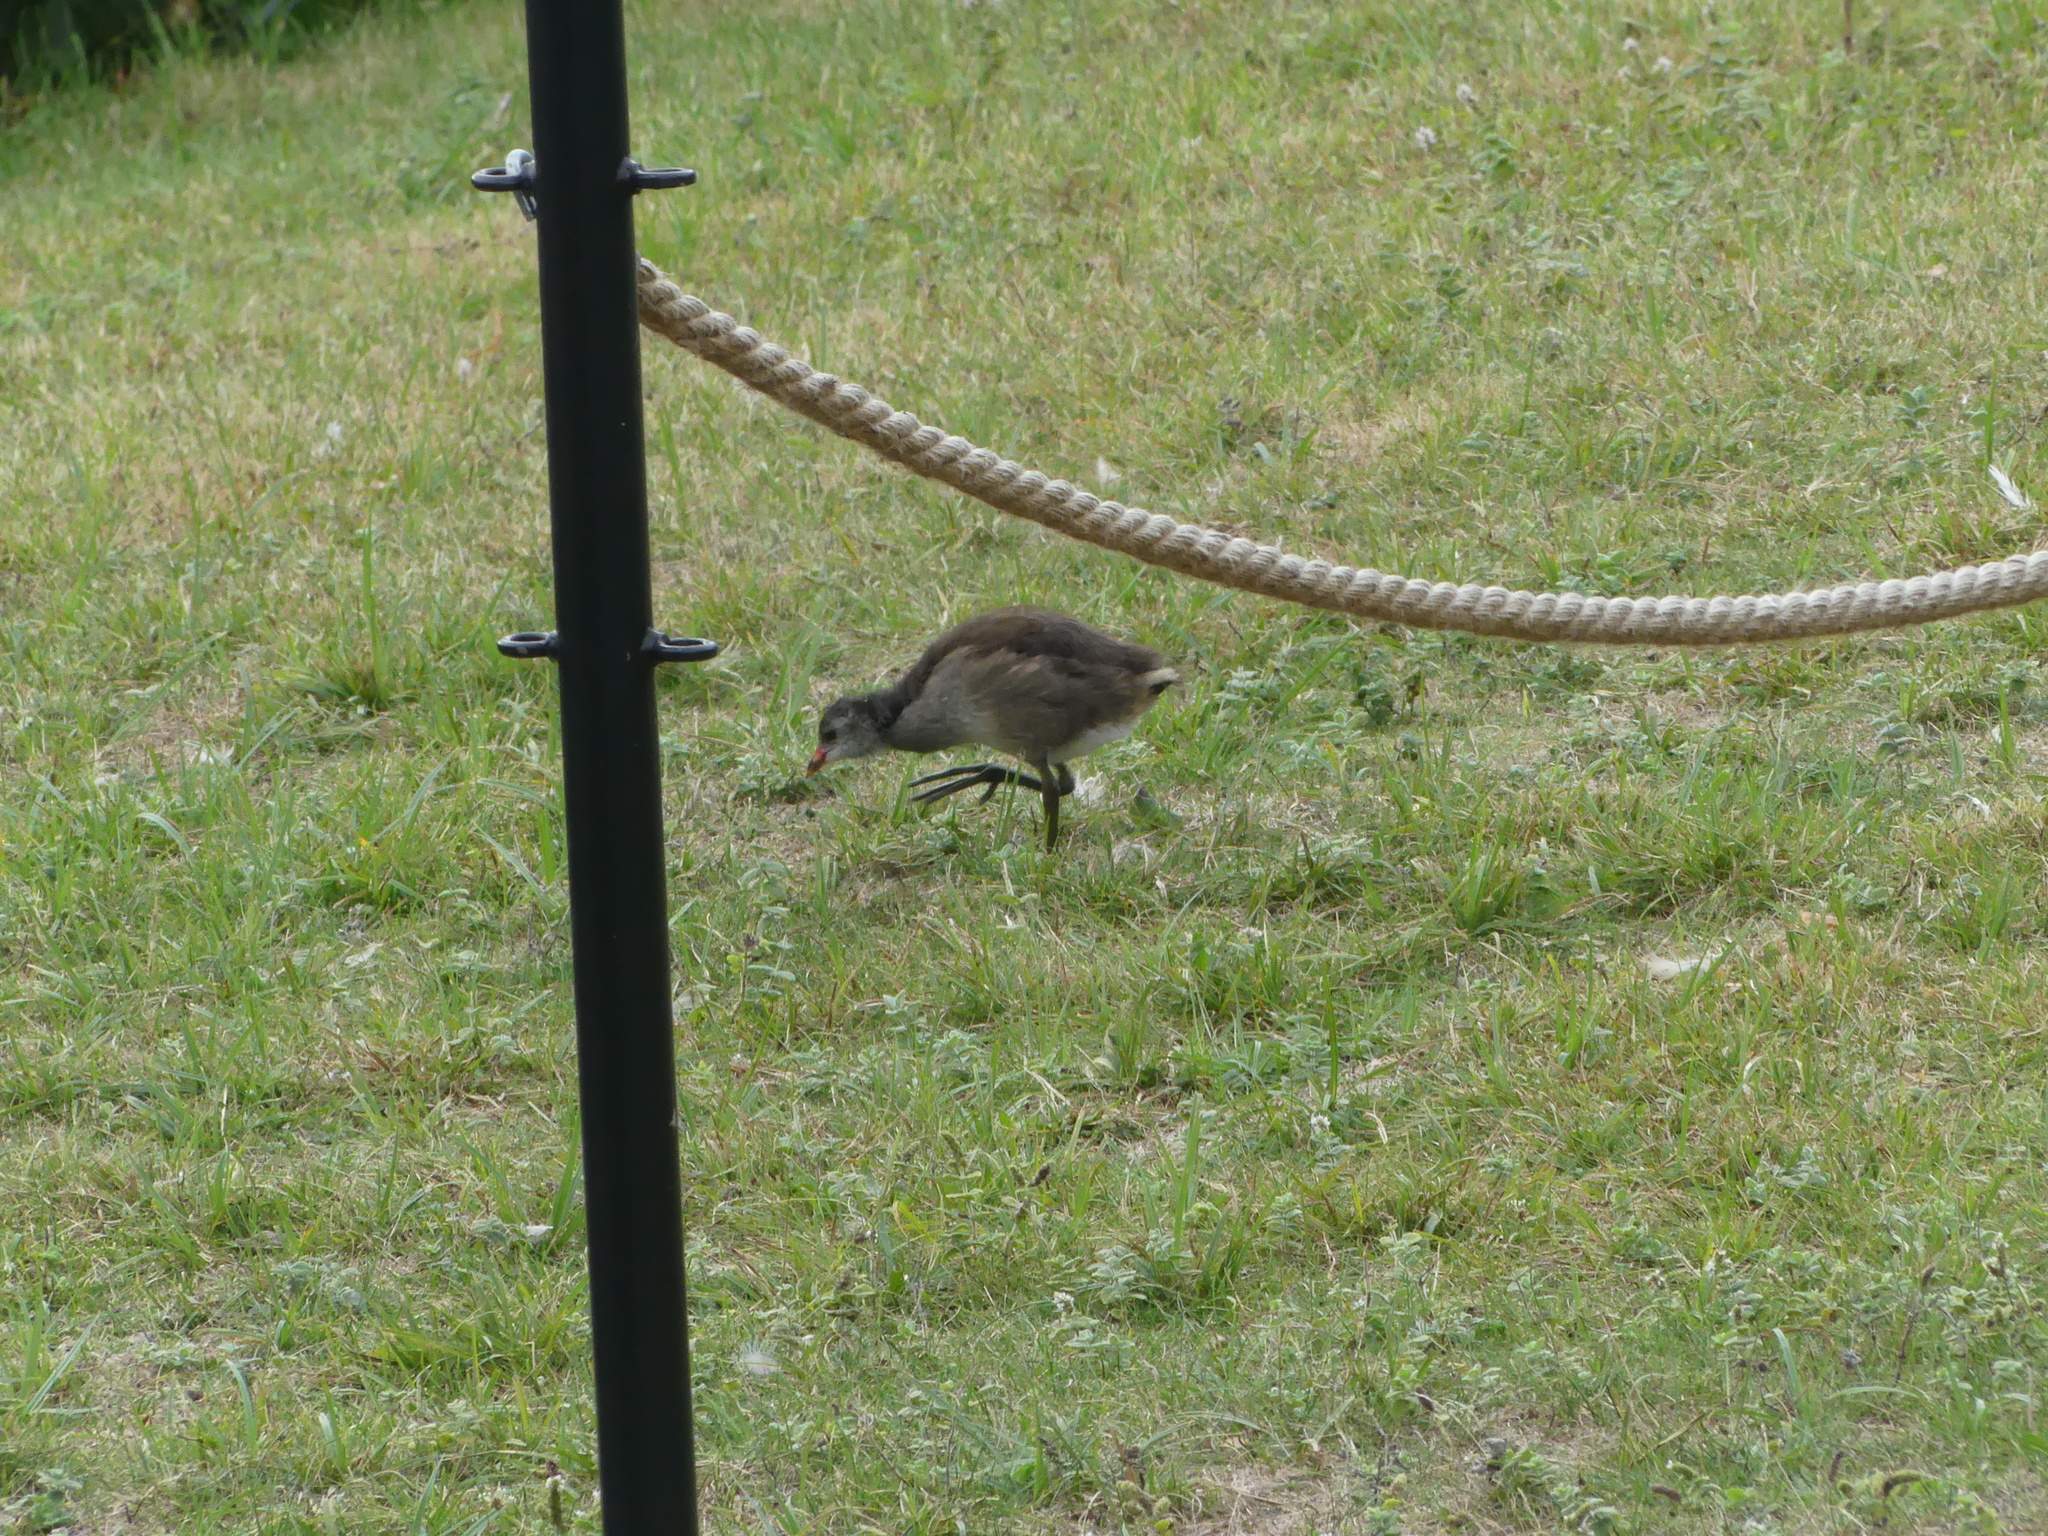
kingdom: Animalia
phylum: Chordata
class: Aves
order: Gruiformes
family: Rallidae
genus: Gallinula
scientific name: Gallinula chloropus
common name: Common moorhen
